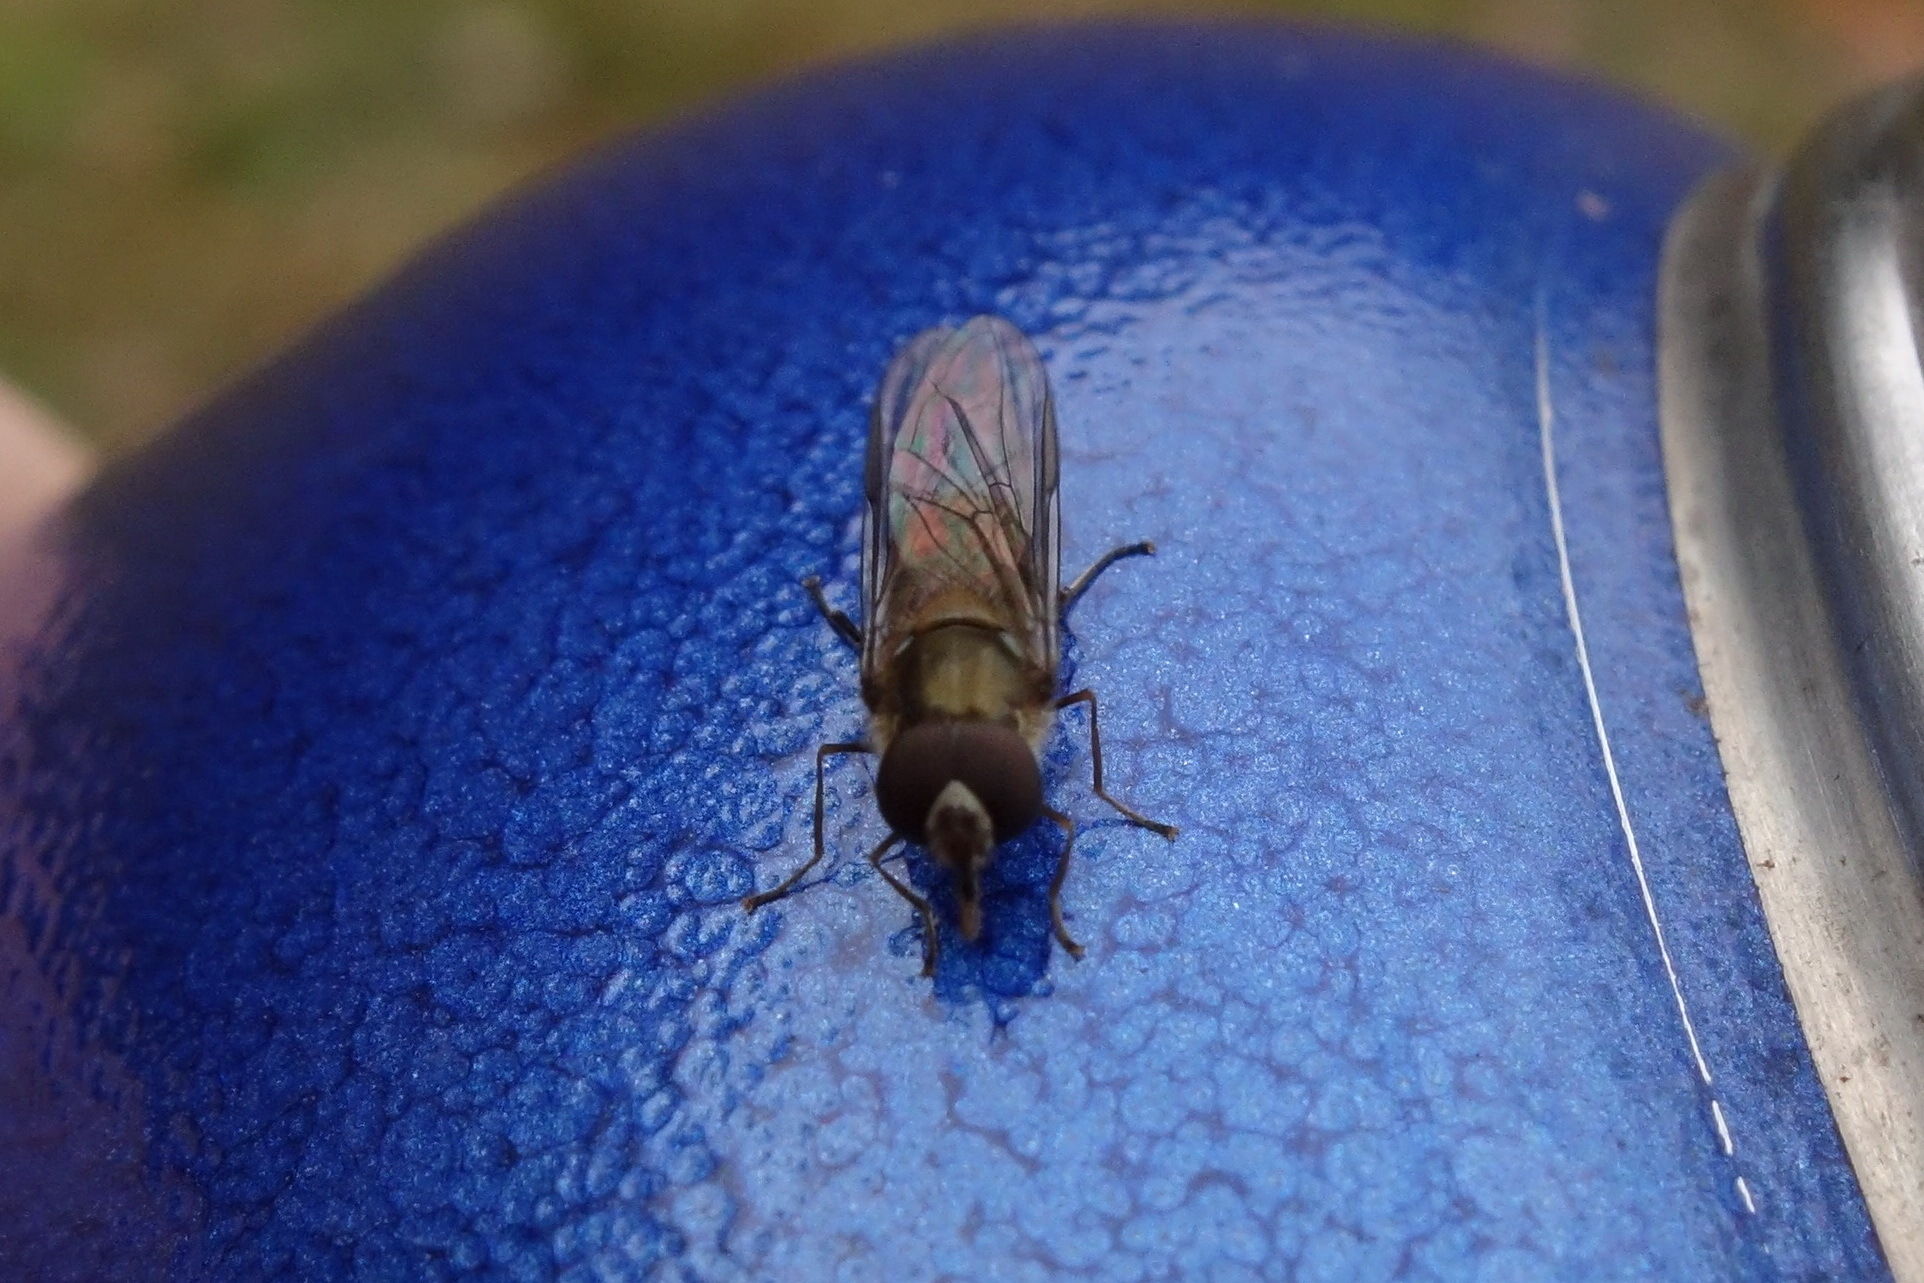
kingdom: Animalia
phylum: Arthropoda
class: Insecta
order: Diptera
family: Syrphidae
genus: Episyrphus
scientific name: Episyrphus balteatus
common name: Marmalade hoverfly
